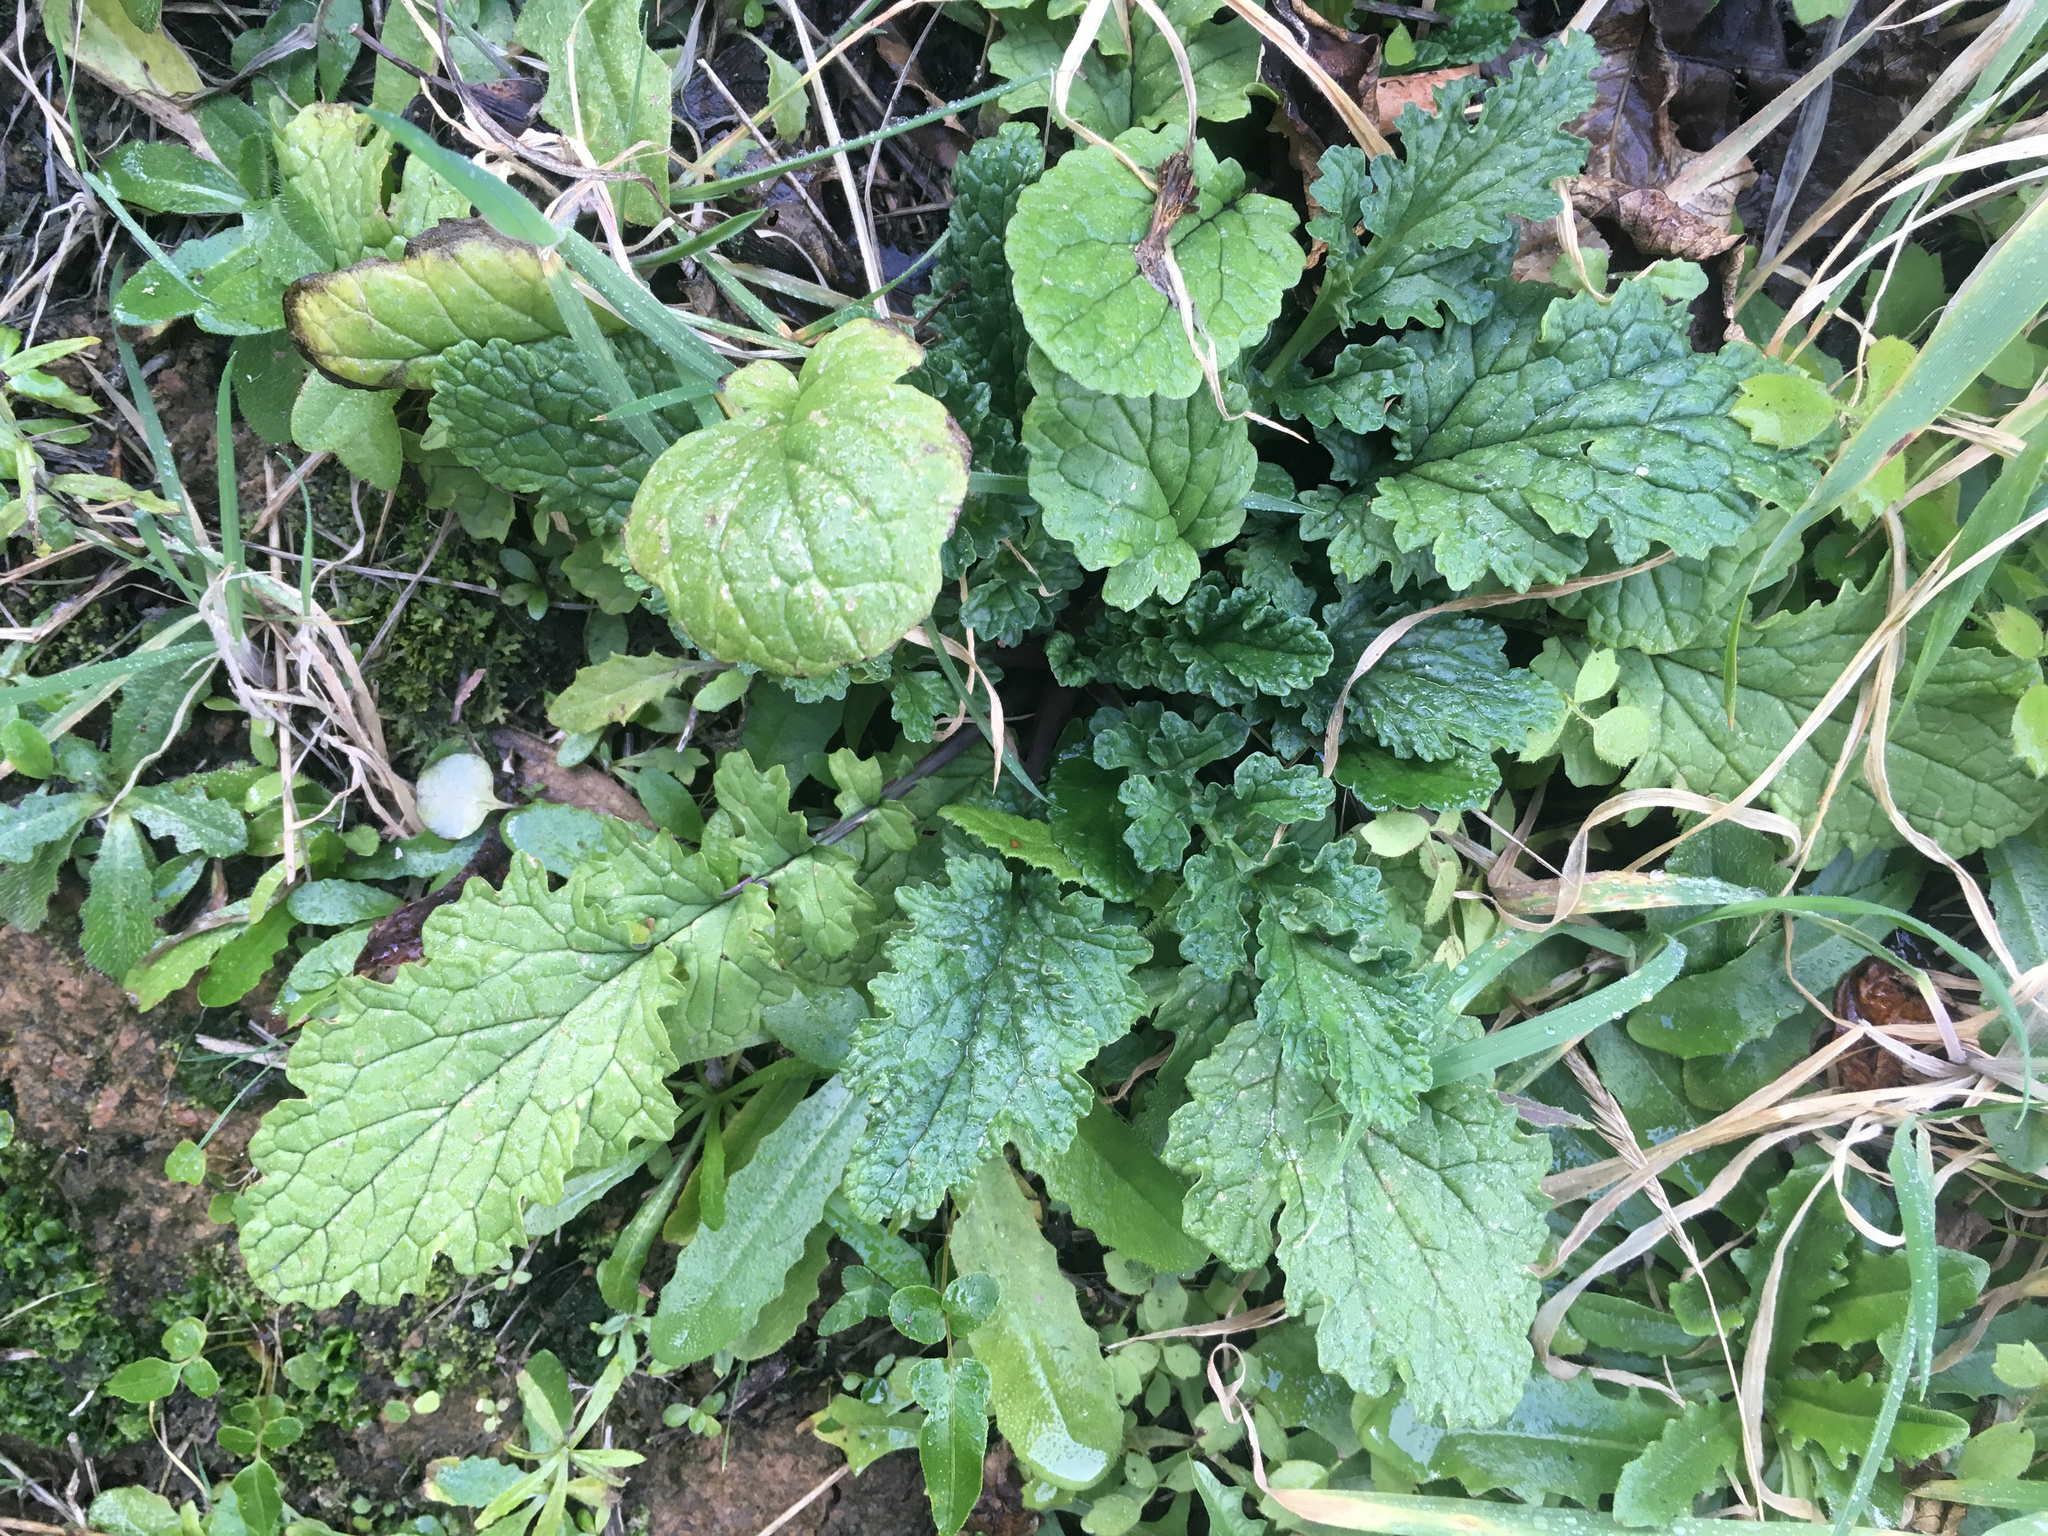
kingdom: Plantae
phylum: Tracheophyta
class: Magnoliopsida
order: Asterales
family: Asteraceae
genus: Jacobaea
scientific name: Jacobaea vulgaris
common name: Stinking willie
